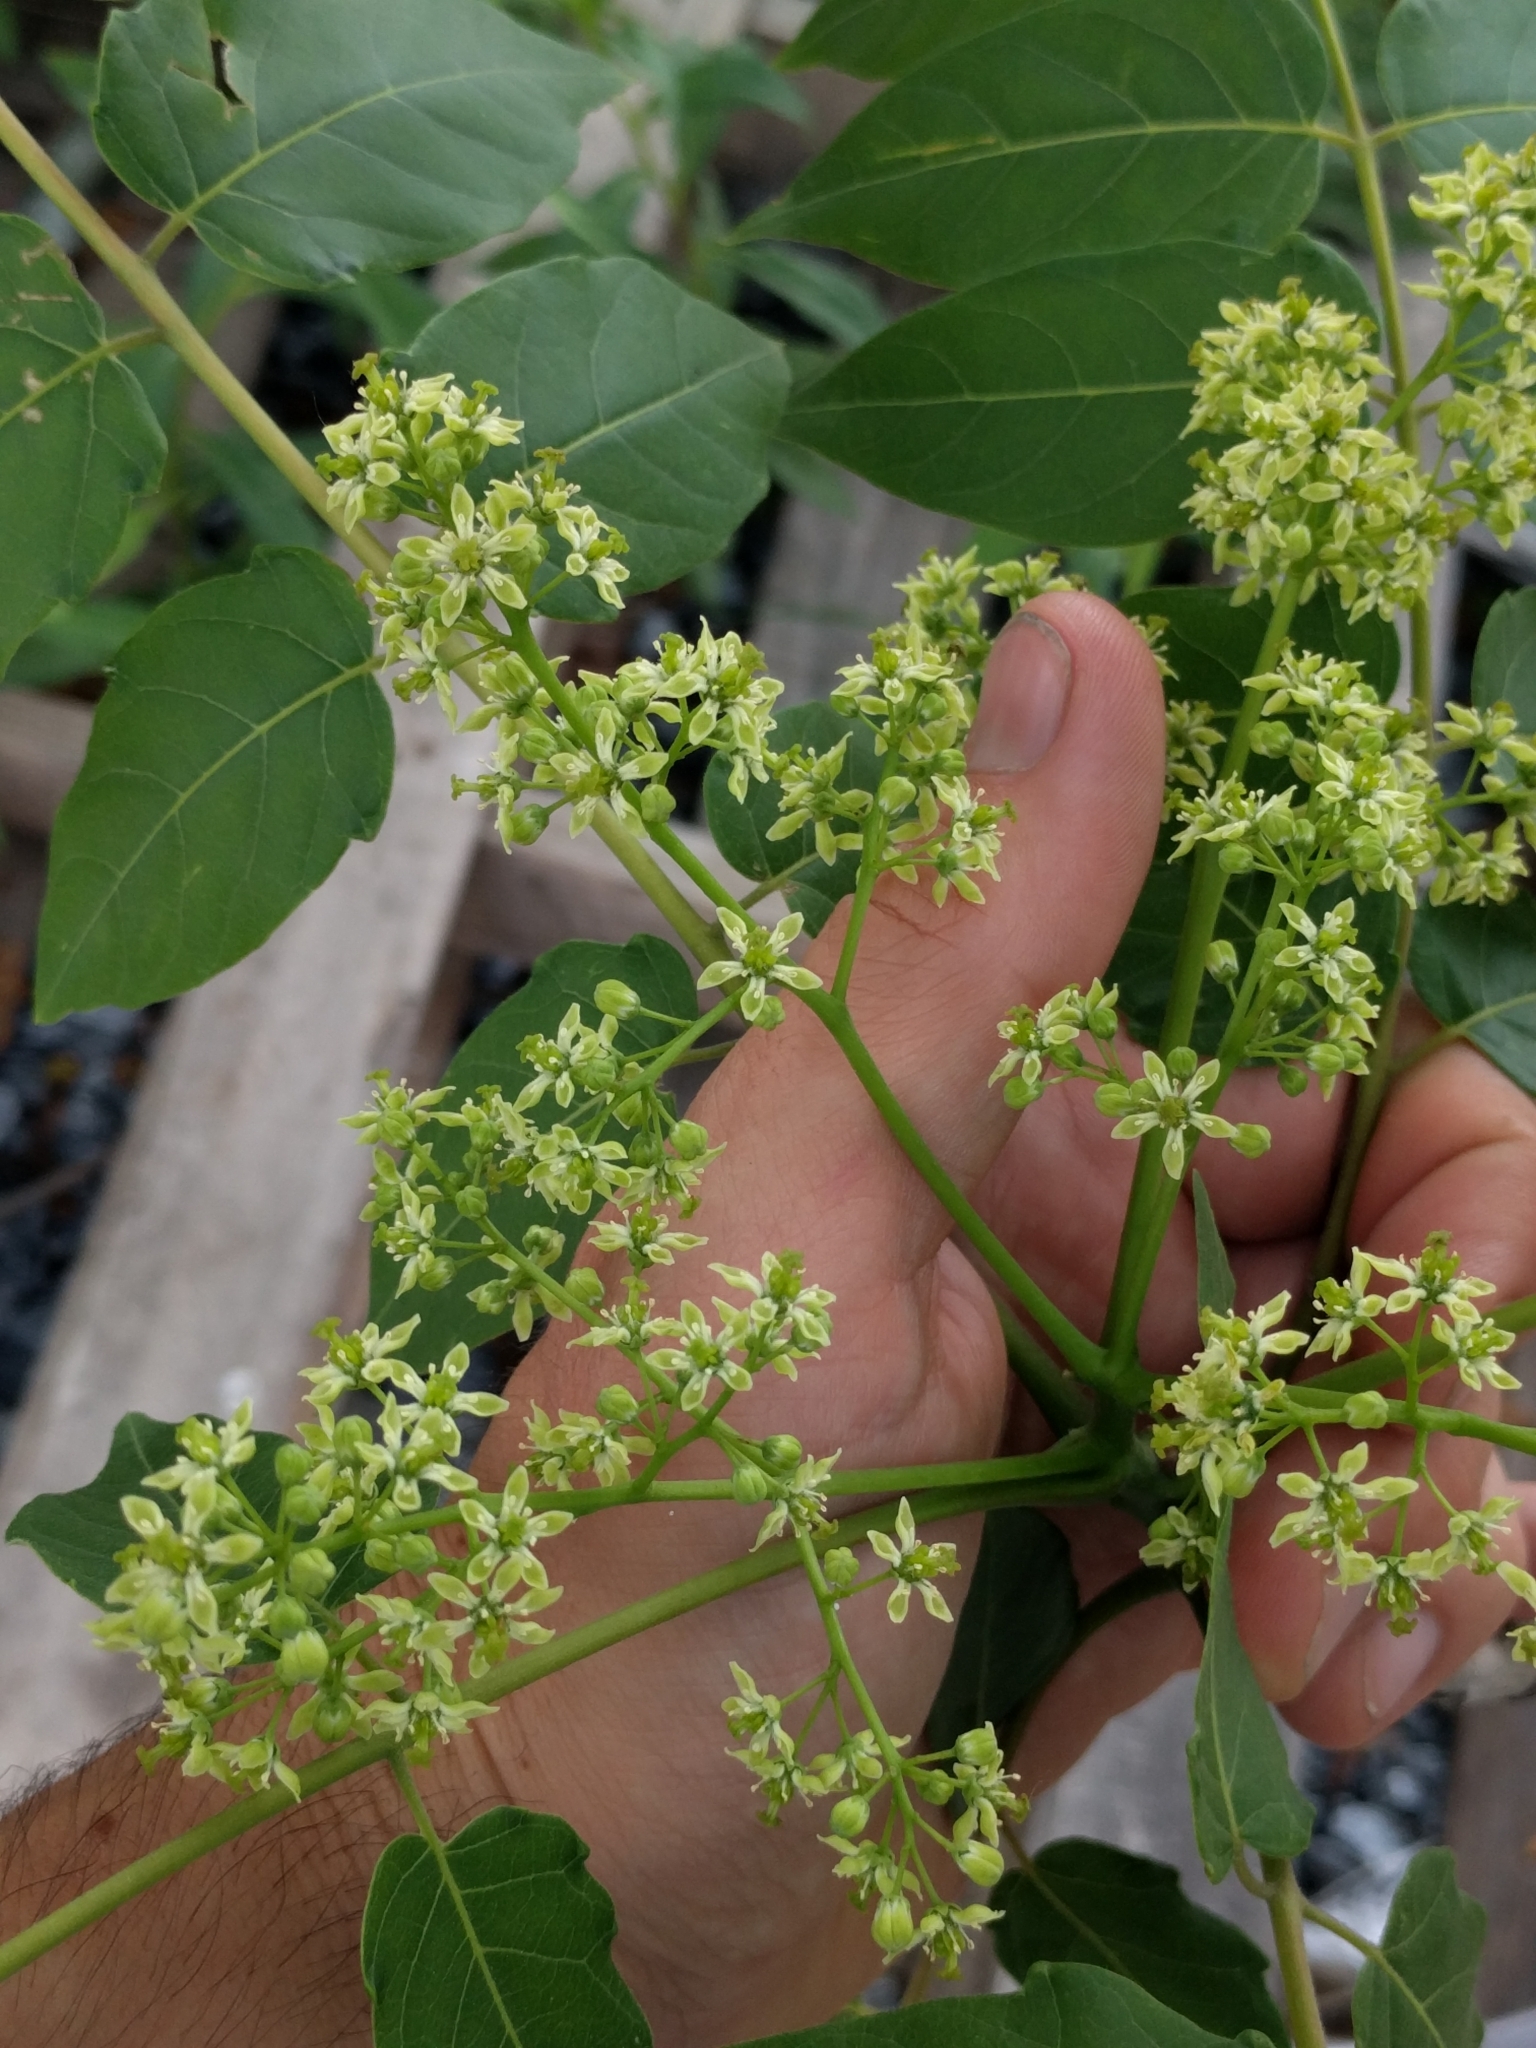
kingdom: Plantae
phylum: Tracheophyta
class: Magnoliopsida
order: Sapindales
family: Simaroubaceae
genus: Ailanthus
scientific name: Ailanthus altissima
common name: Tree-of-heaven
